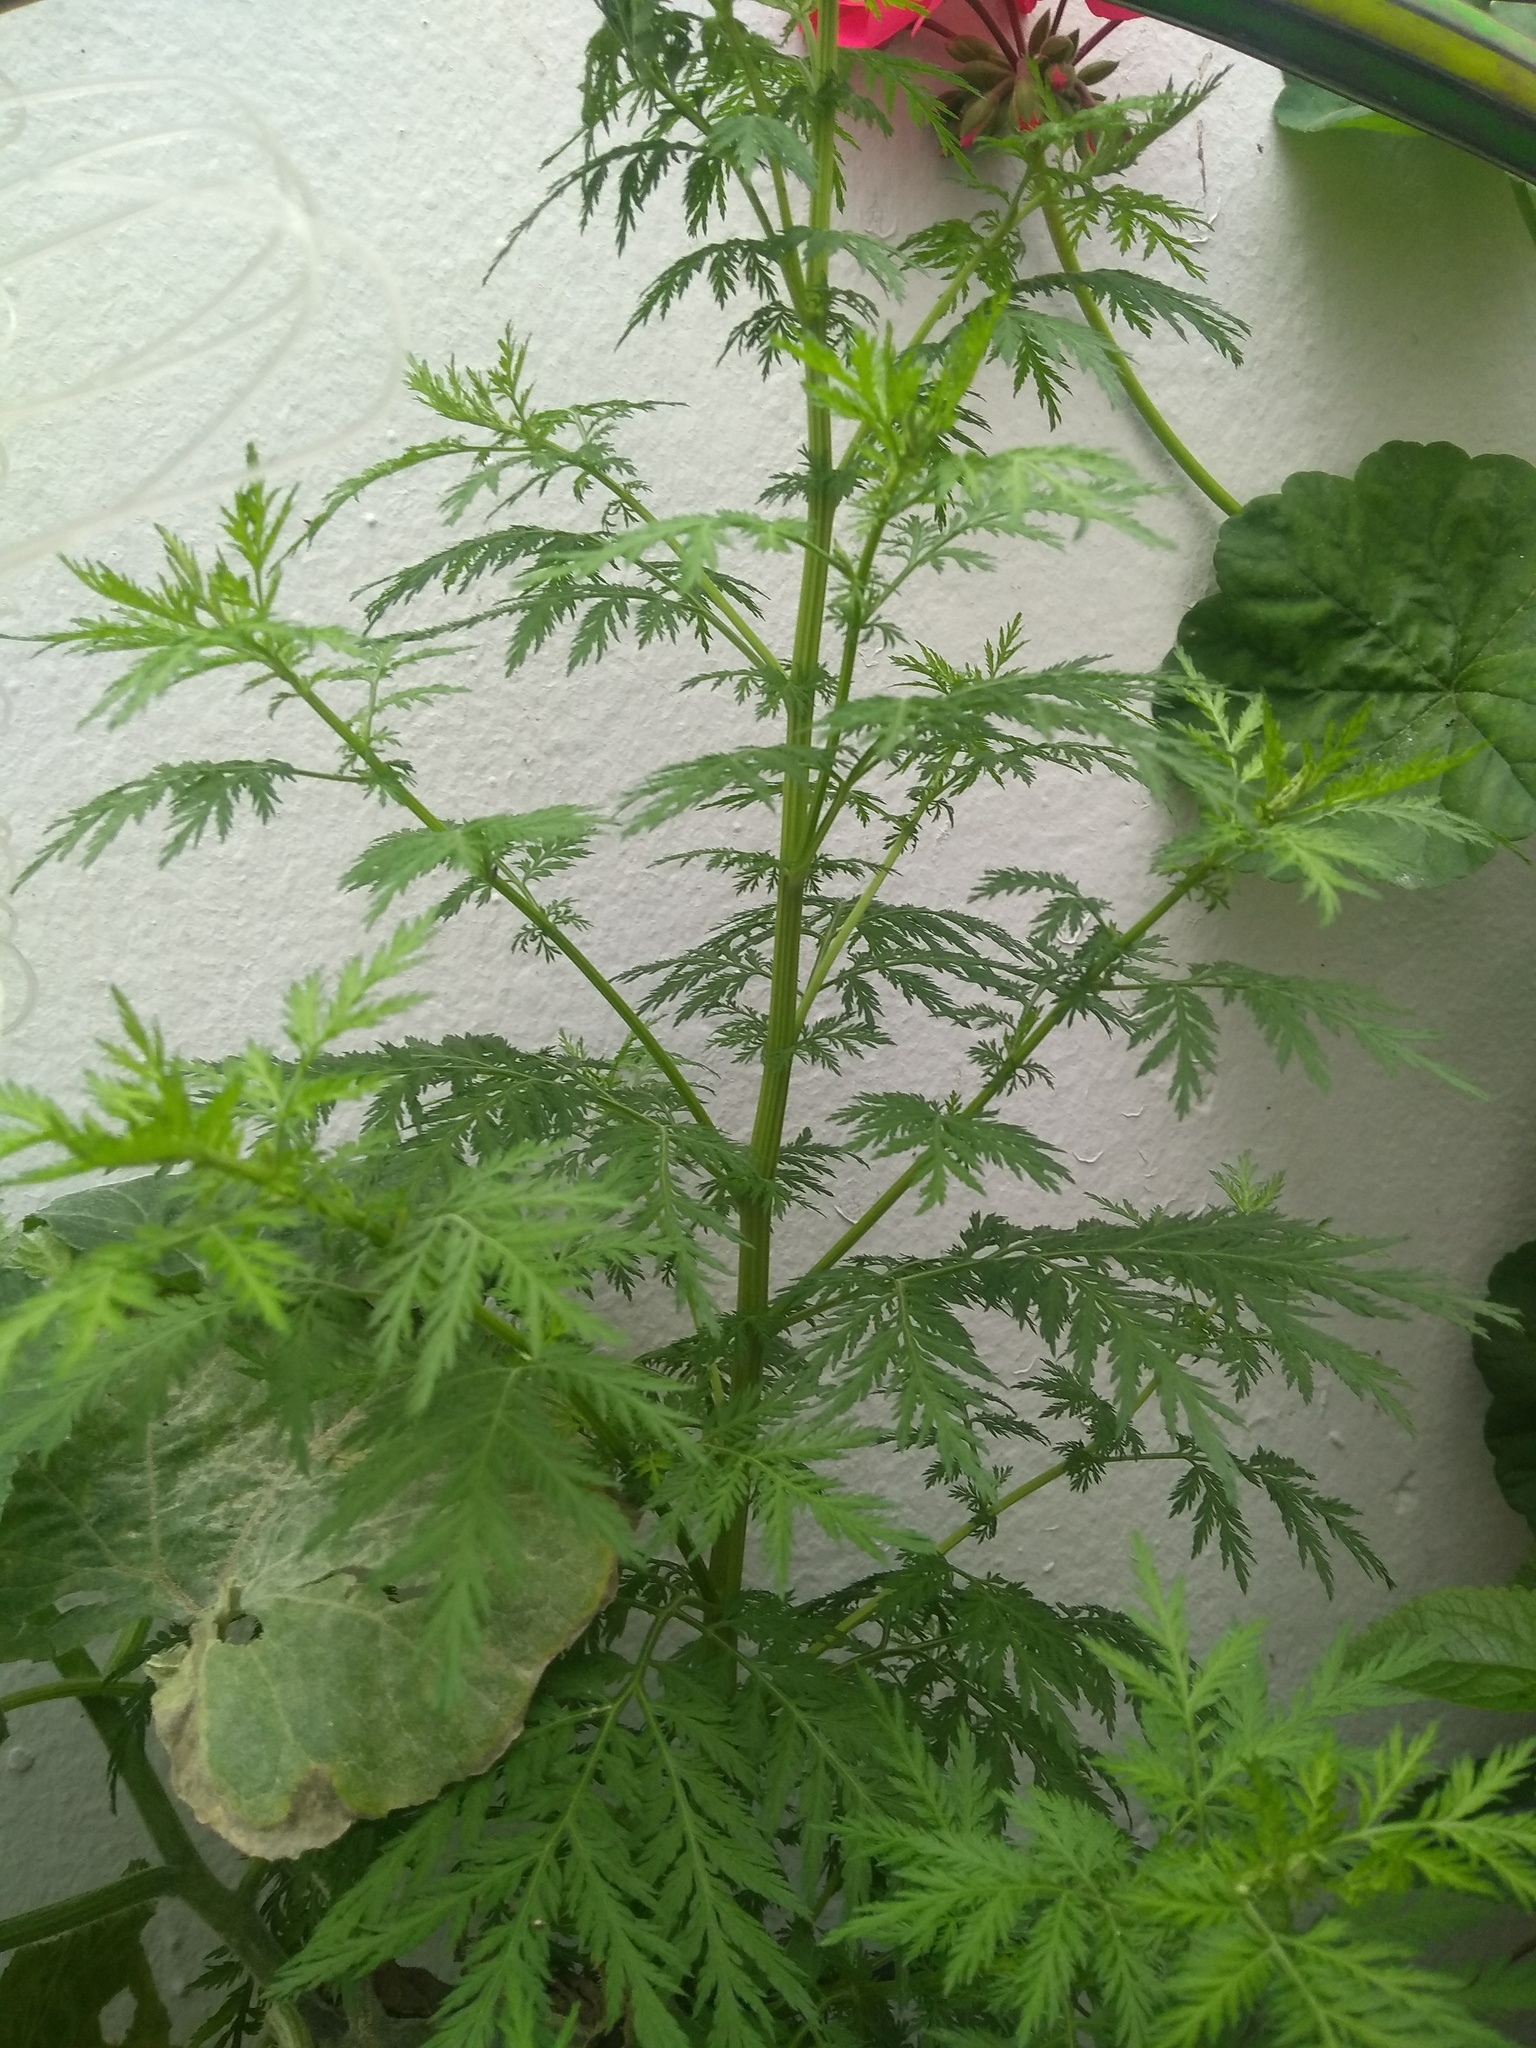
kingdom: Plantae
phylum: Tracheophyta
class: Magnoliopsida
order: Asterales
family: Asteraceae
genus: Artemisia
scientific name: Artemisia annua
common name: Sweet sagewort
